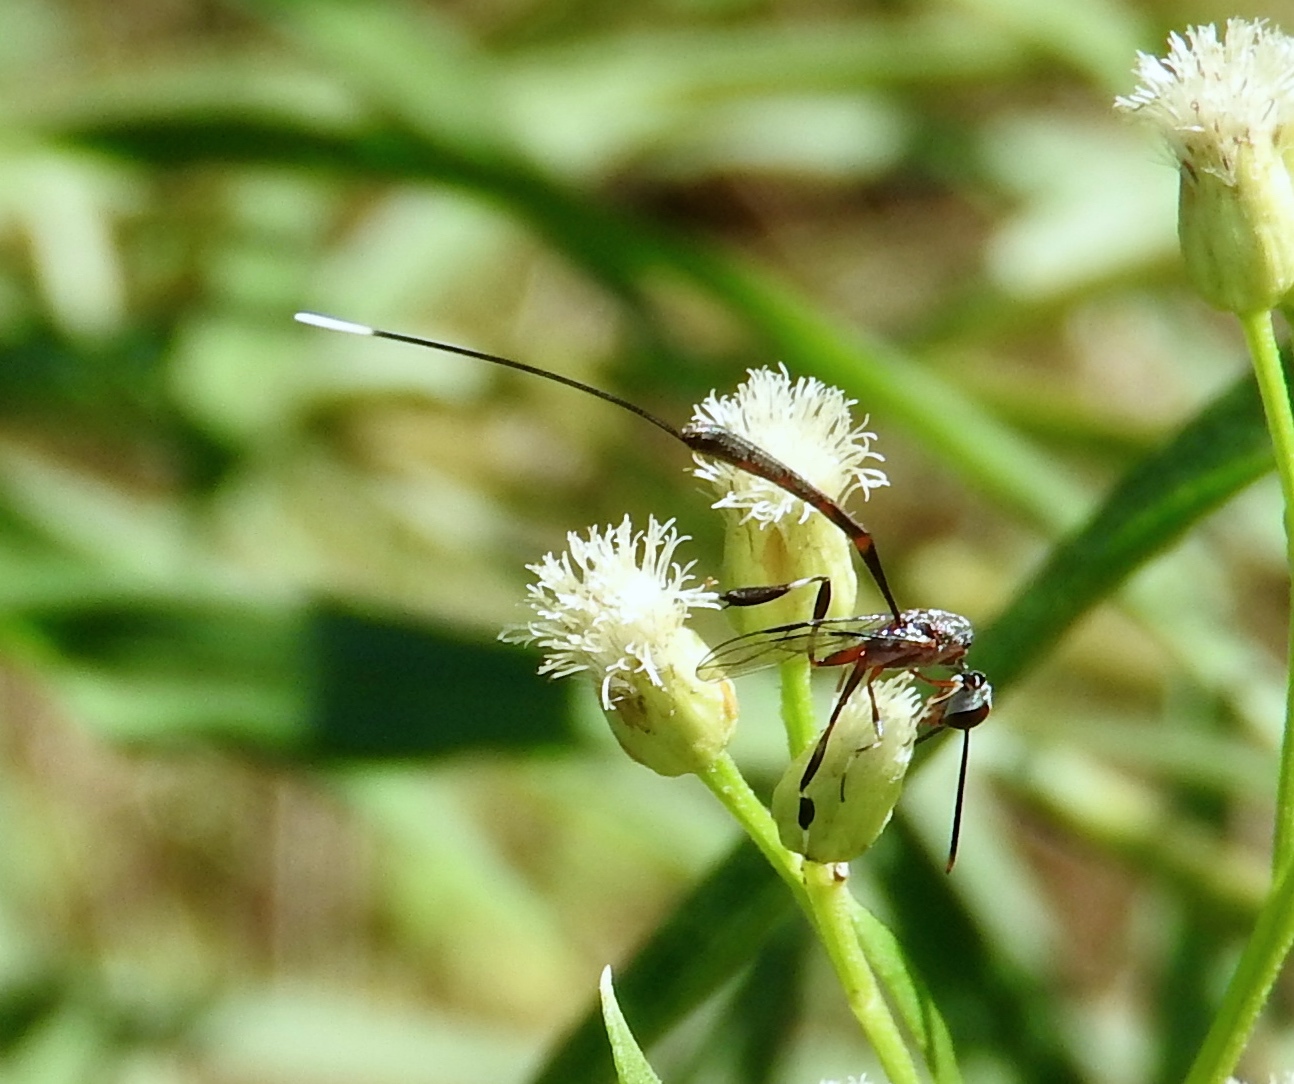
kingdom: Animalia
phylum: Arthropoda
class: Insecta
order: Hymenoptera
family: Gasteruptiidae
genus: Gasteruption
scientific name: Gasteruption
